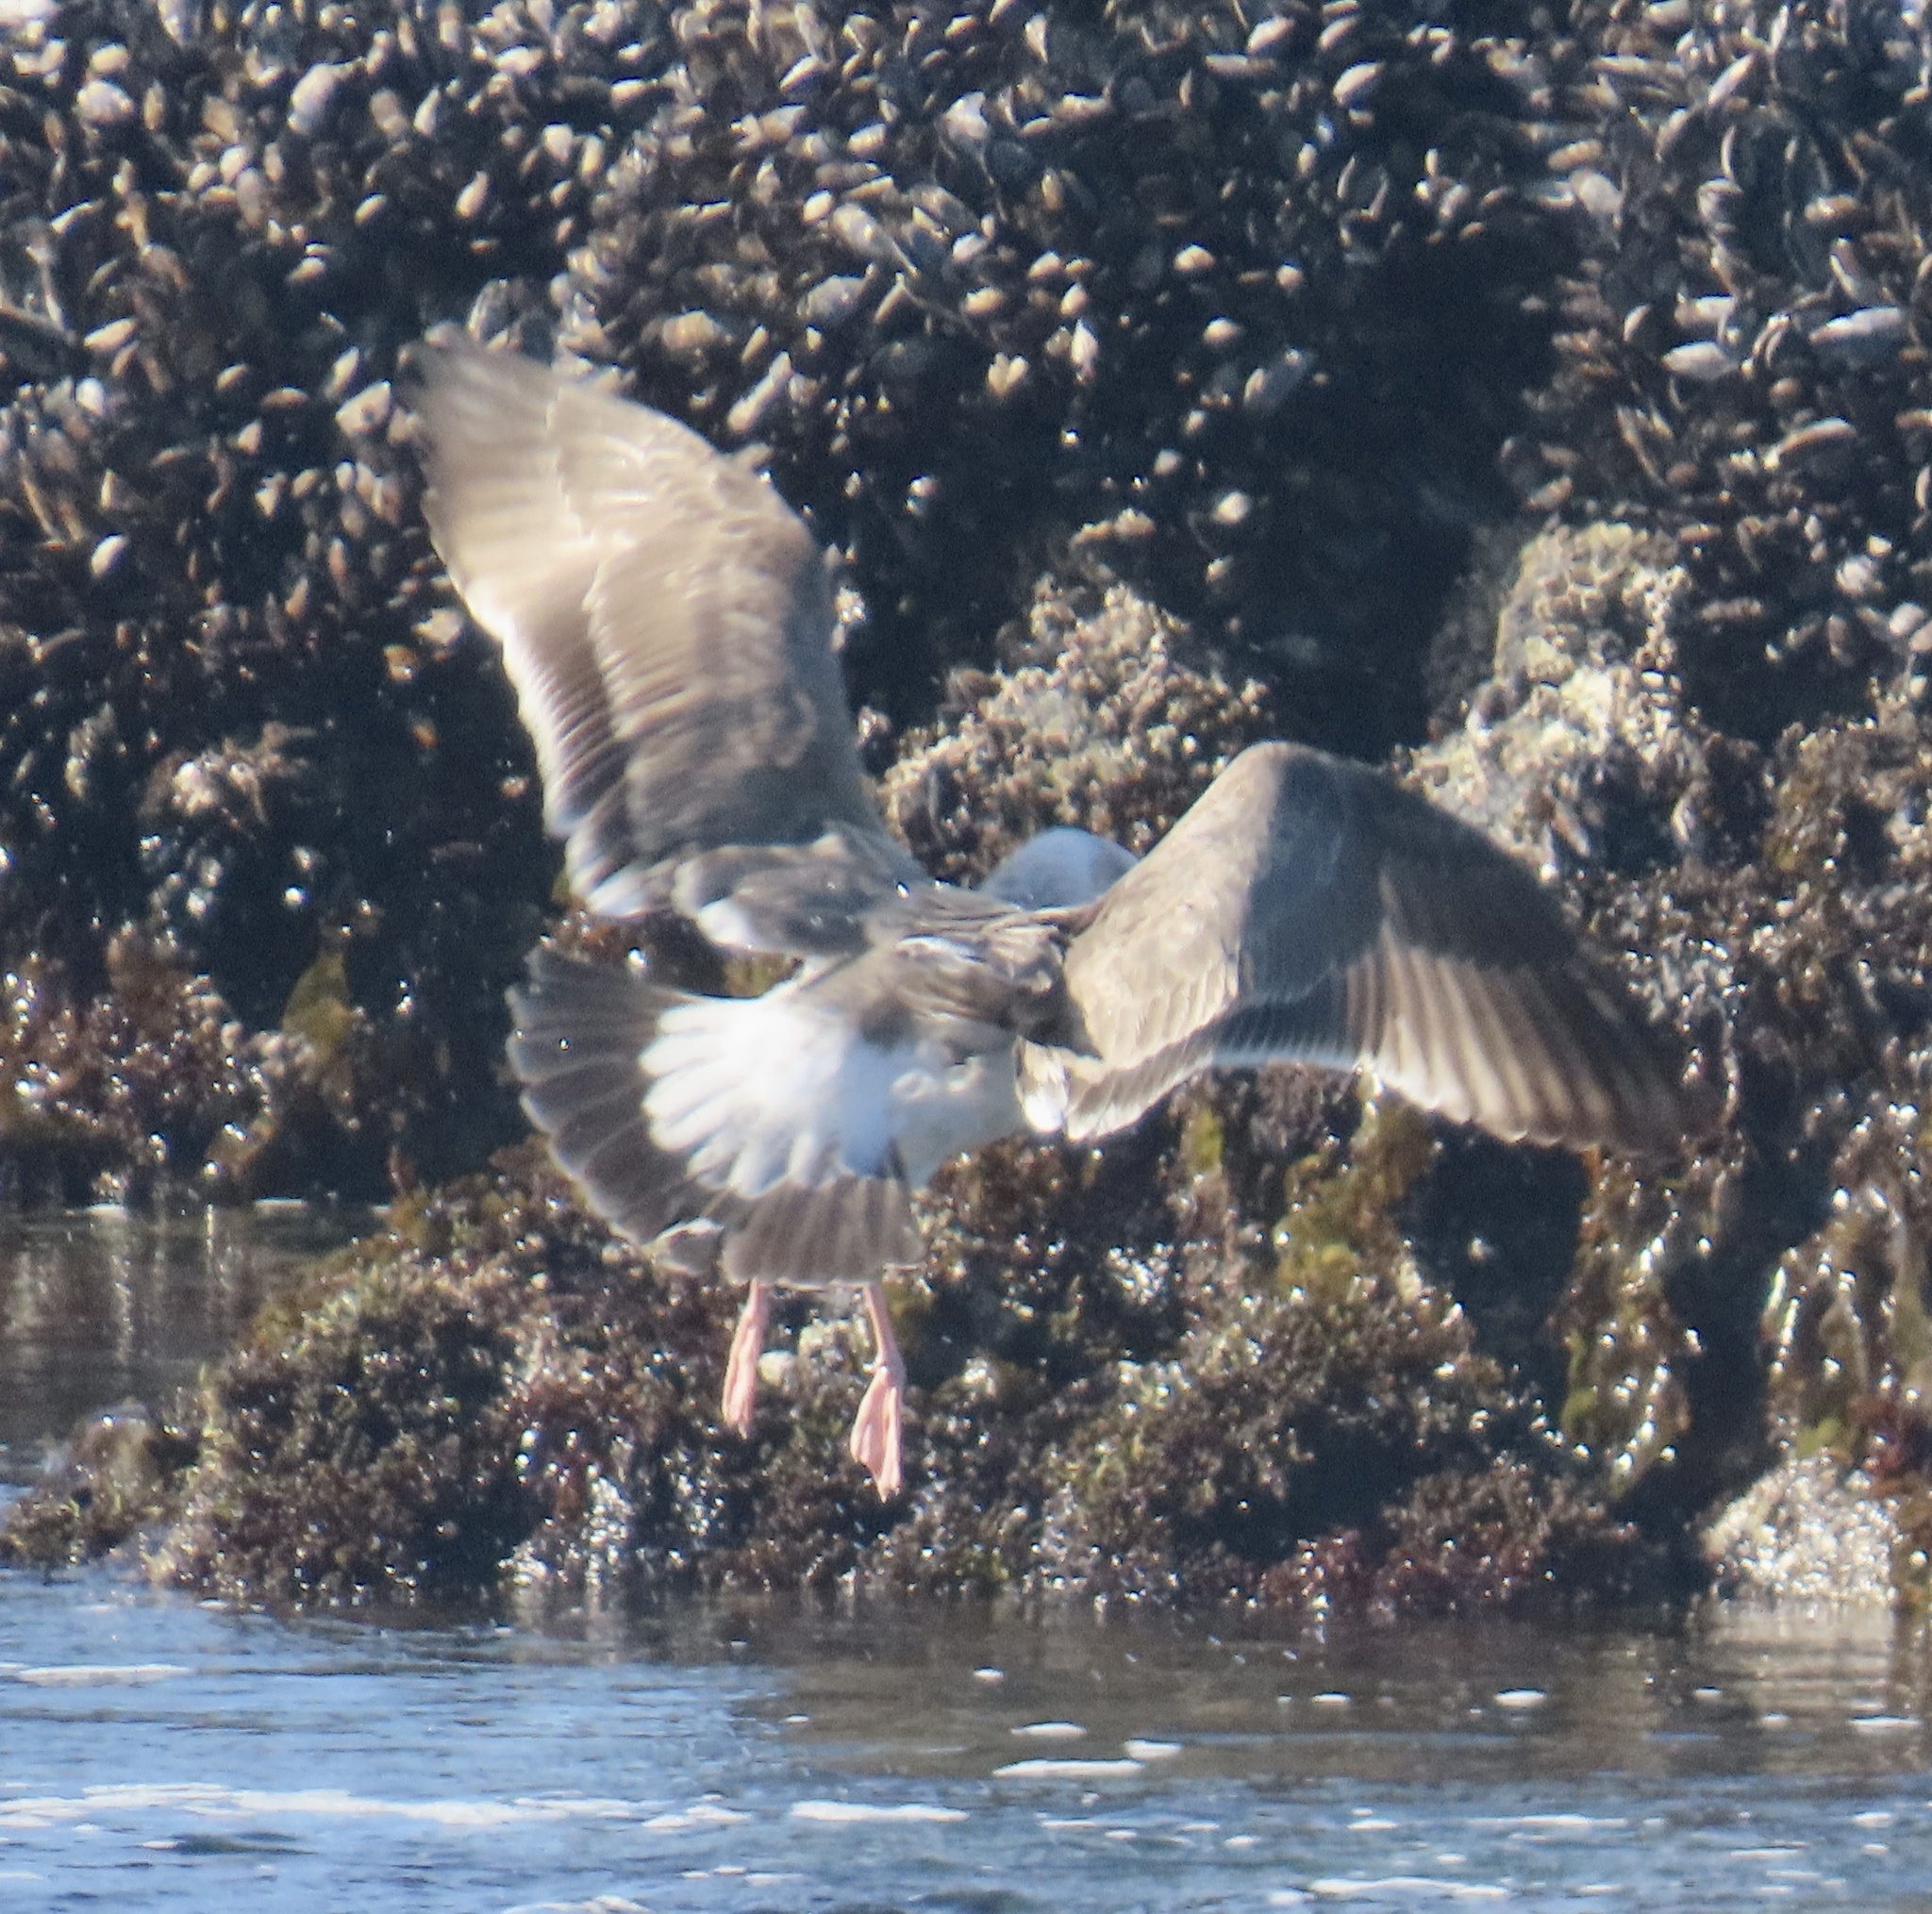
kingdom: Animalia
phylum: Chordata
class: Aves
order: Charadriiformes
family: Laridae
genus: Larus
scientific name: Larus occidentalis
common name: Western gull
